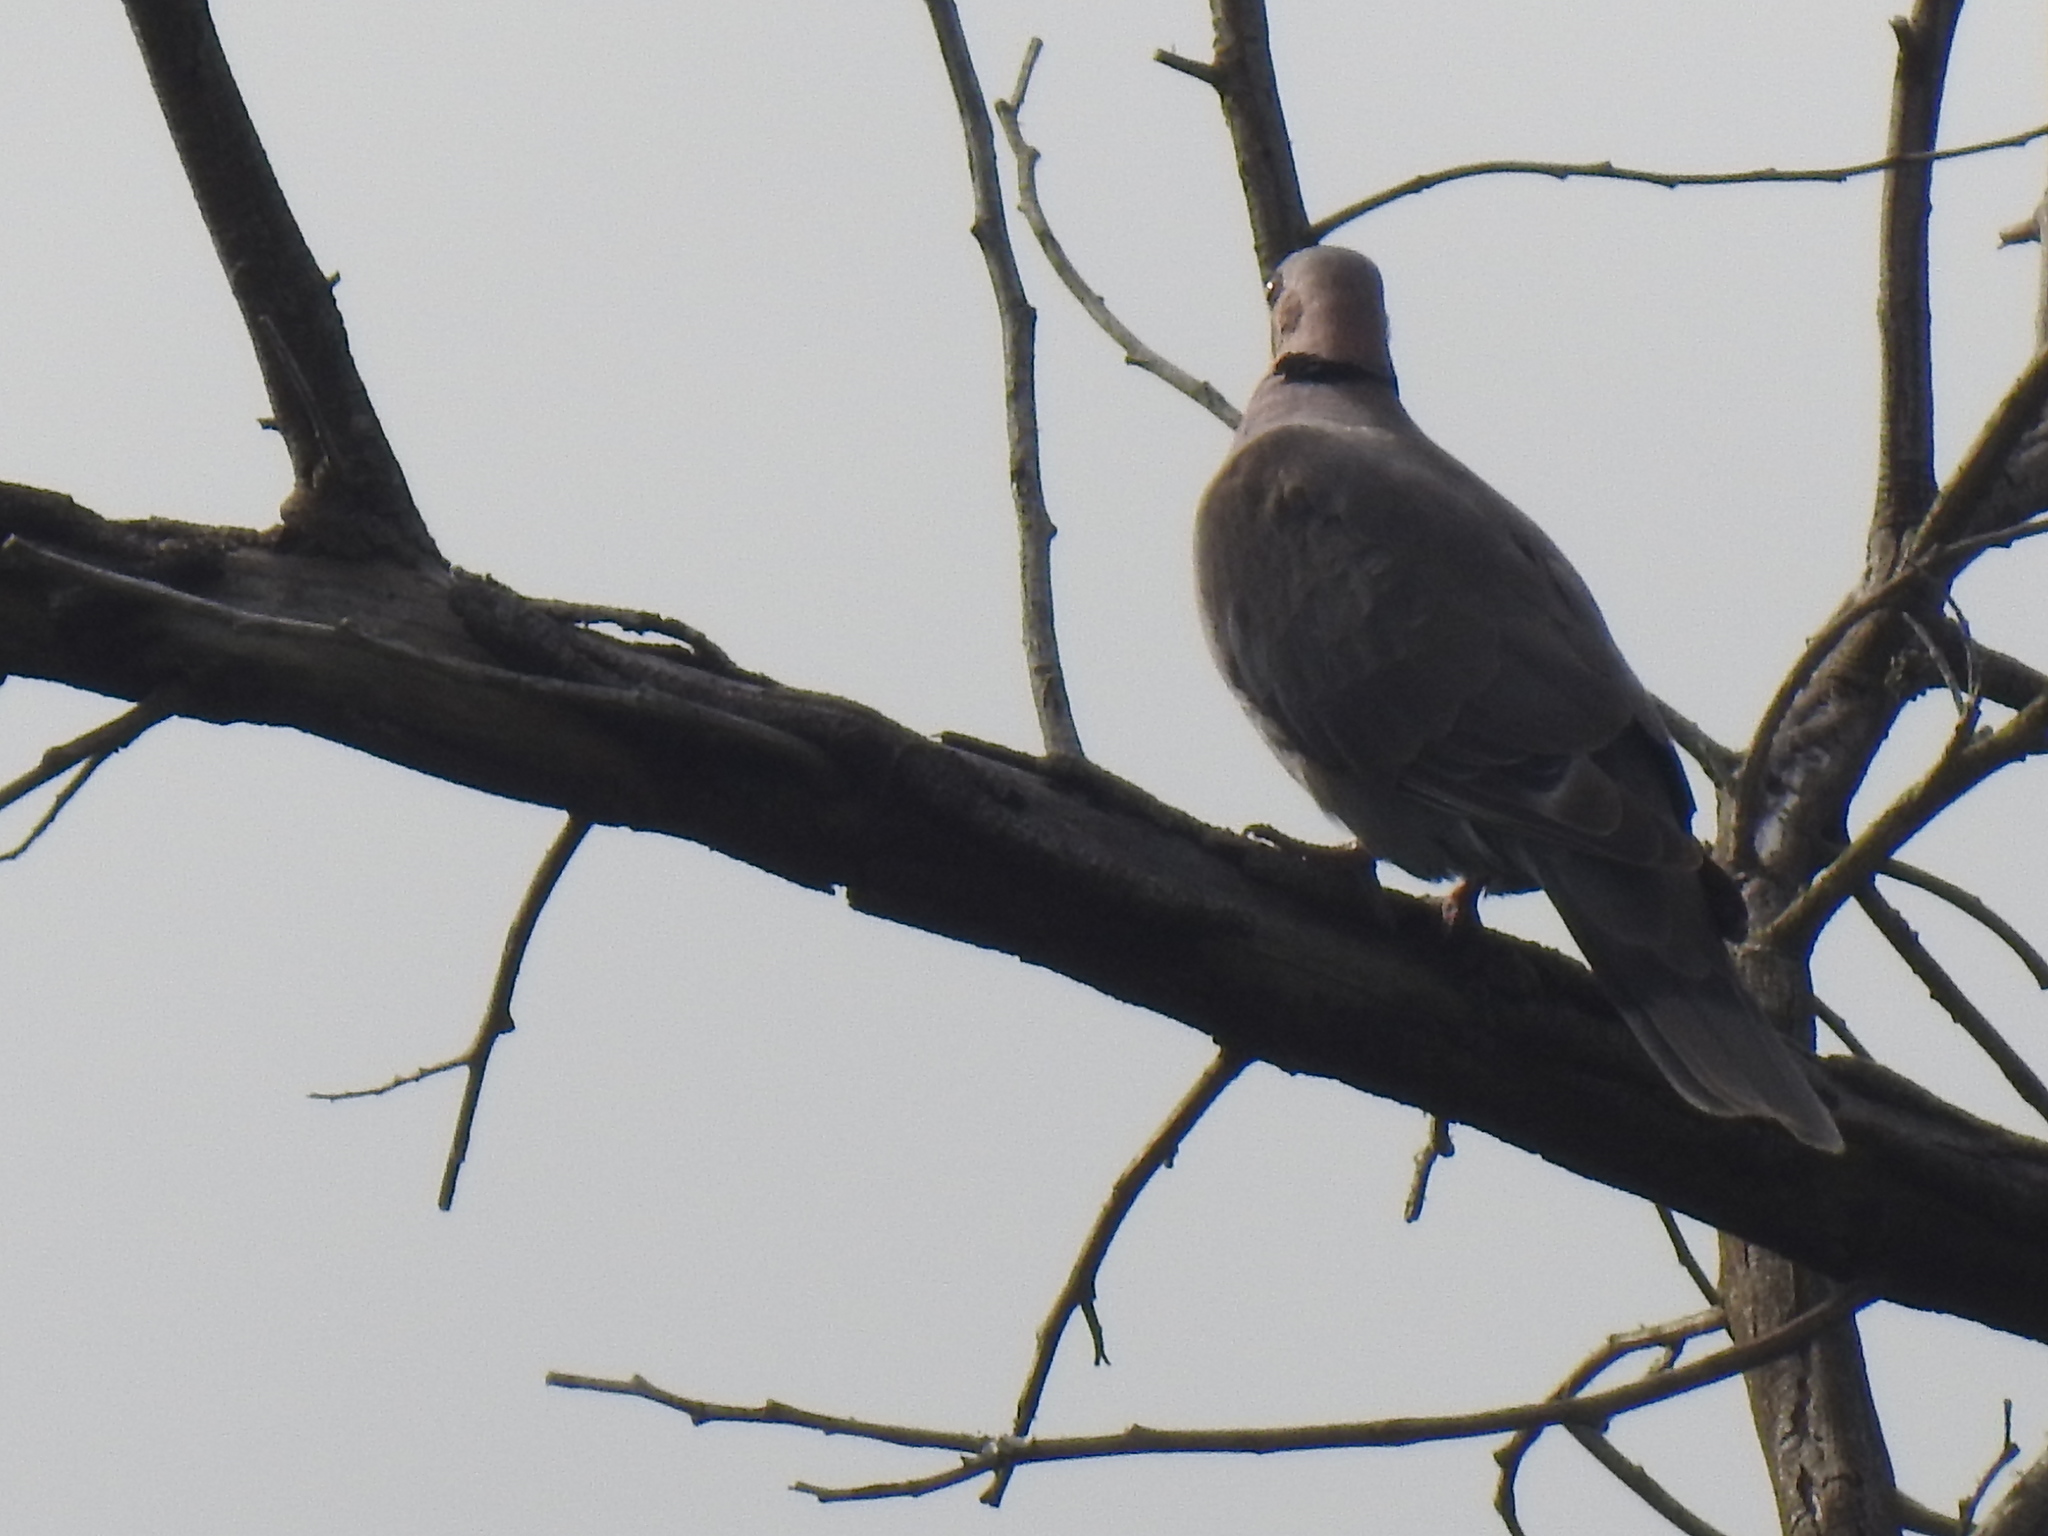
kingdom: Animalia
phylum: Chordata
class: Aves
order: Columbiformes
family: Columbidae
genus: Streptopelia
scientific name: Streptopelia semitorquata
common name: Red-eyed dove
